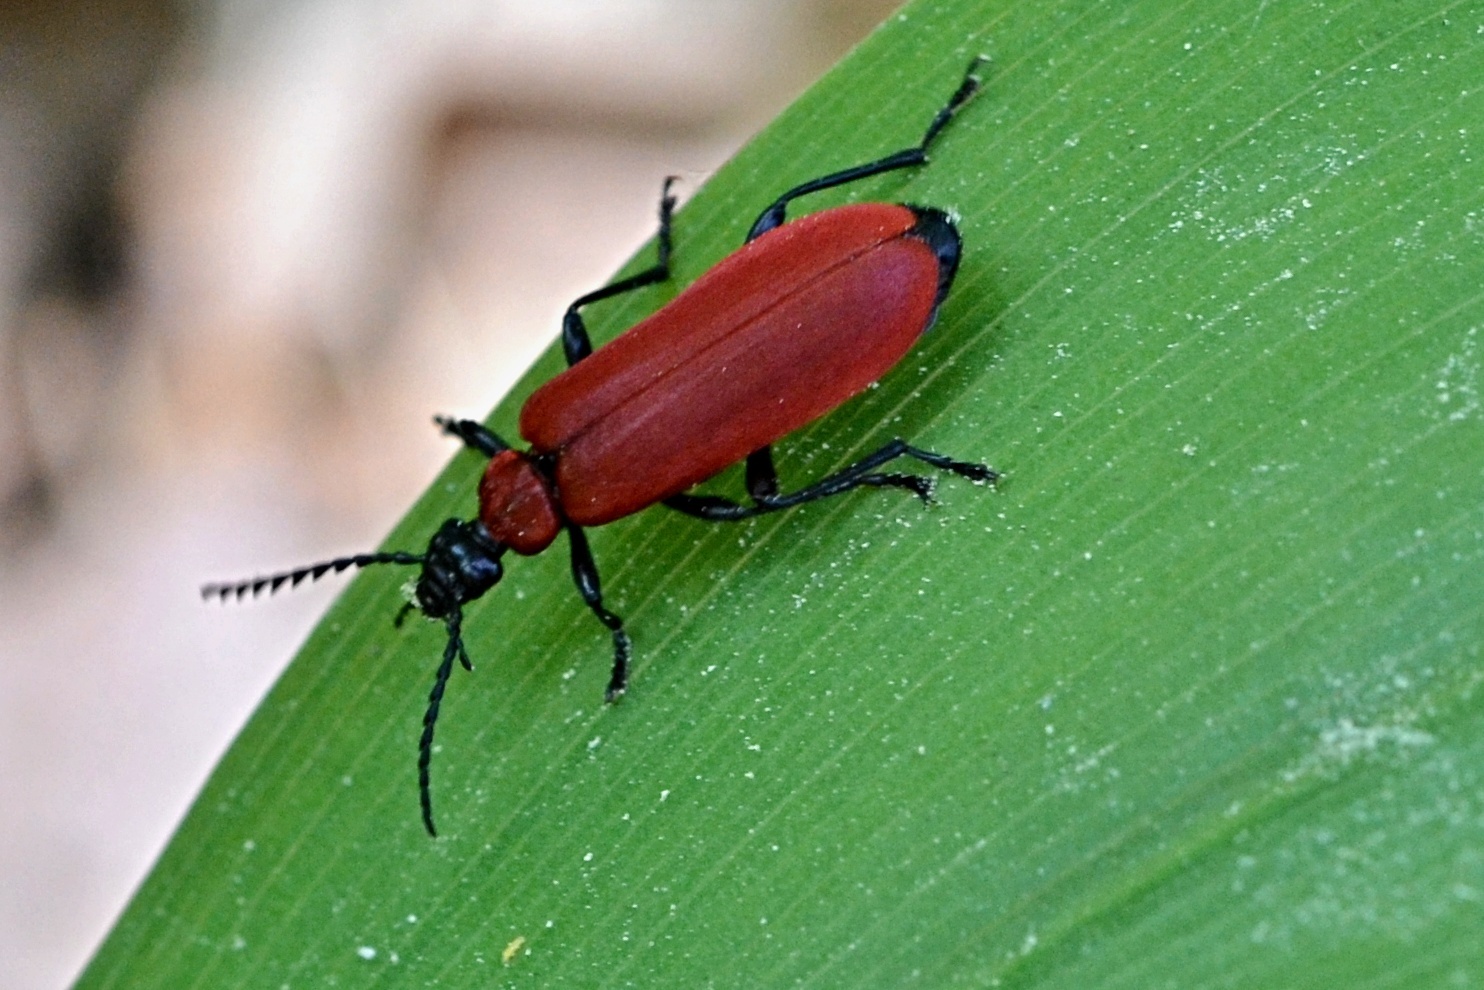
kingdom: Animalia
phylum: Arthropoda
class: Insecta
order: Coleoptera
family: Pyrochroidae
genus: Pyrochroa
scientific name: Pyrochroa coccinea
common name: Black-headed cardinal beetle
